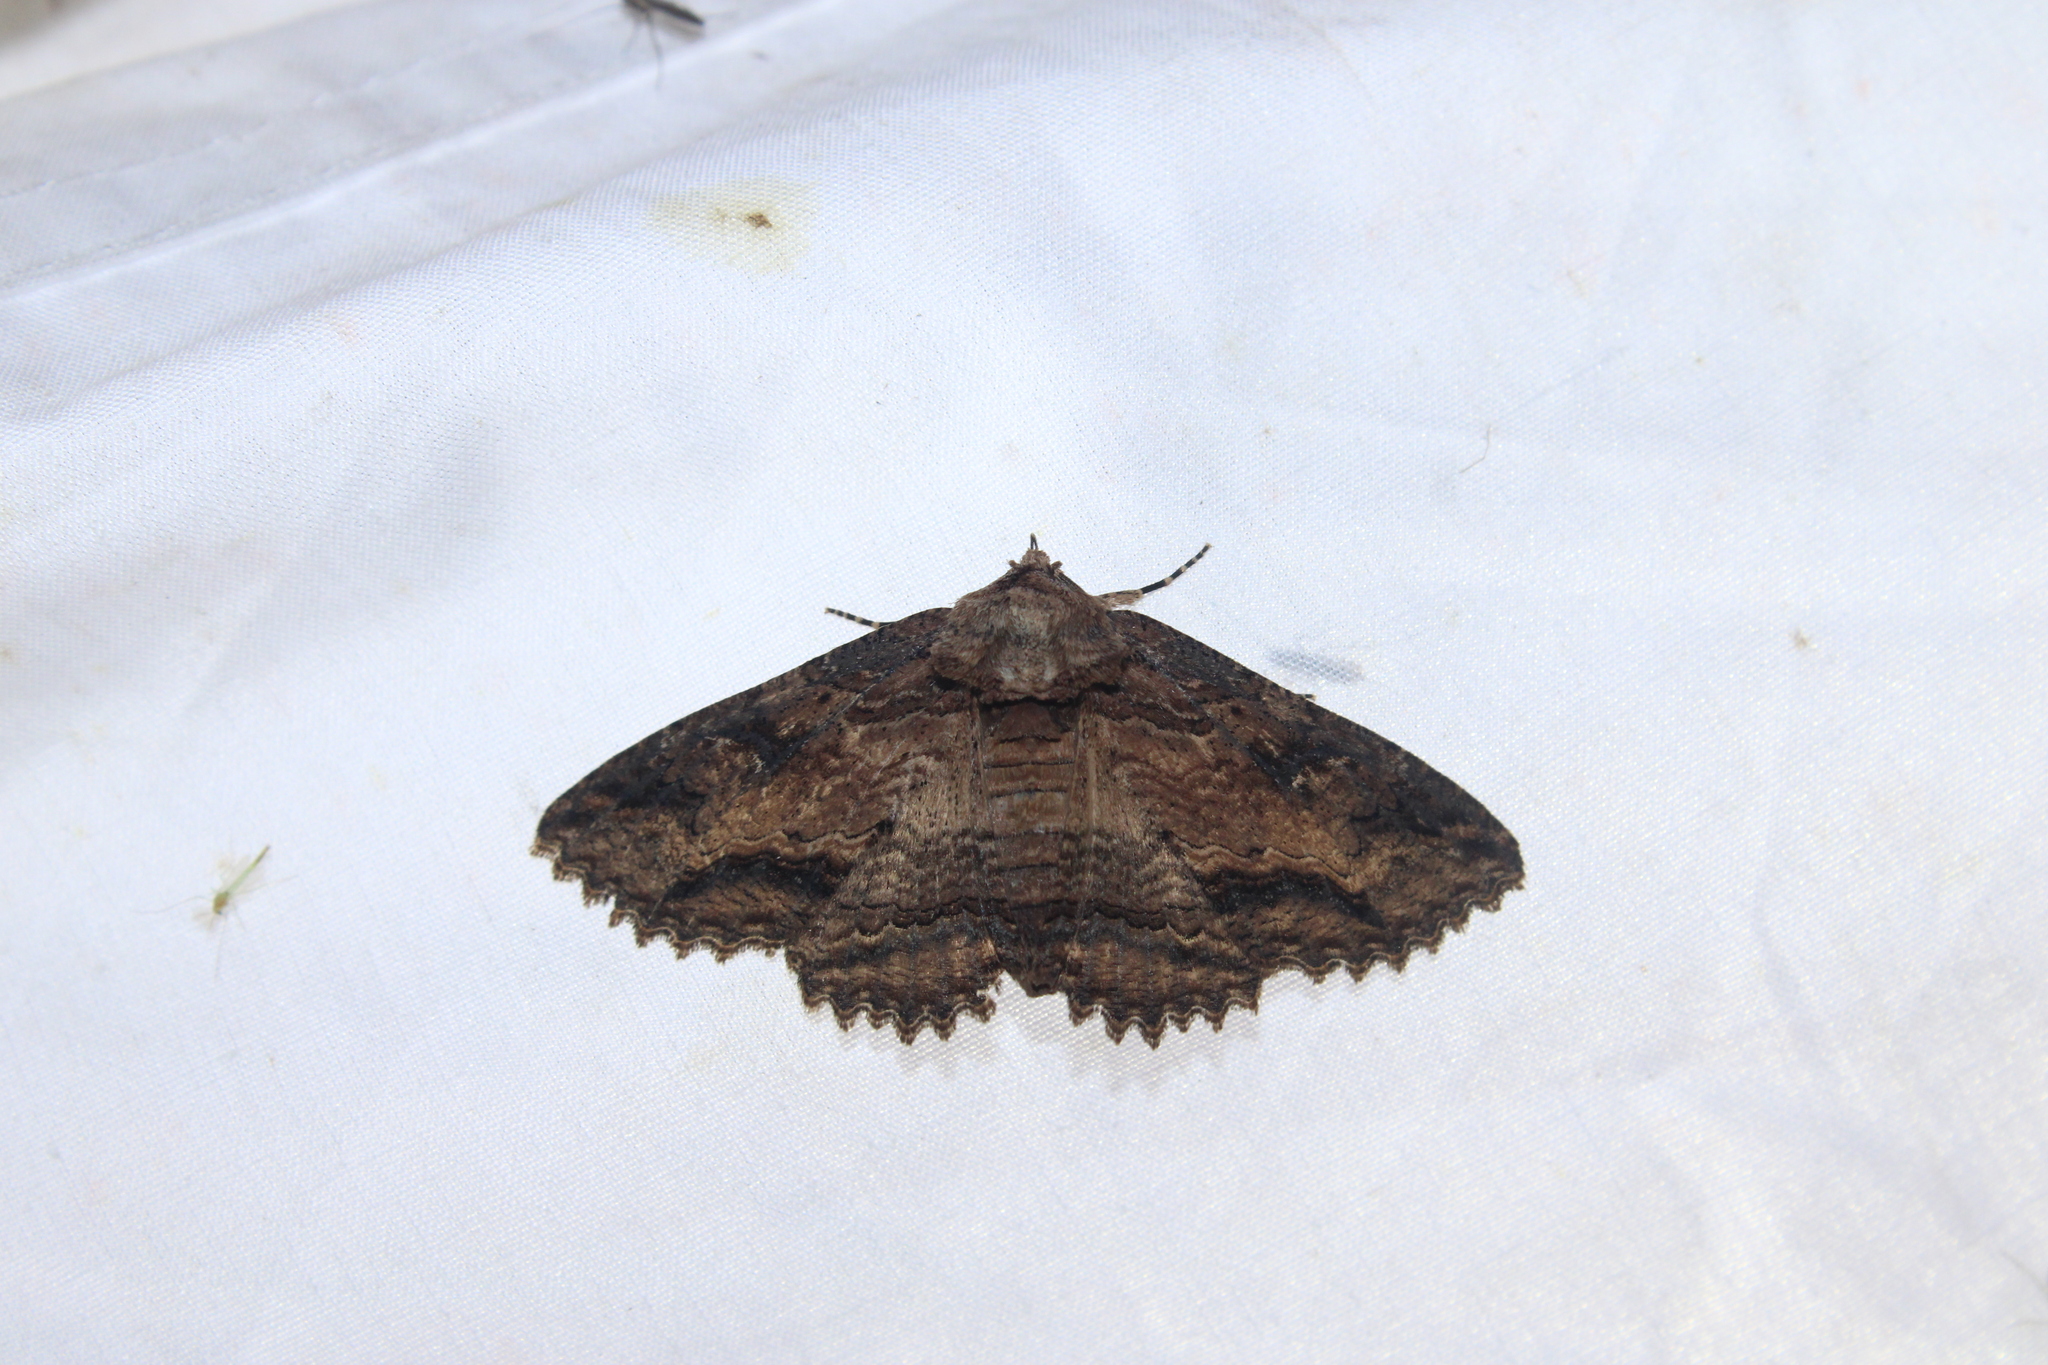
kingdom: Animalia
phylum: Arthropoda
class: Insecta
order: Lepidoptera
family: Erebidae
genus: Zale
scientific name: Zale lunata
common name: Lunate zale moth
